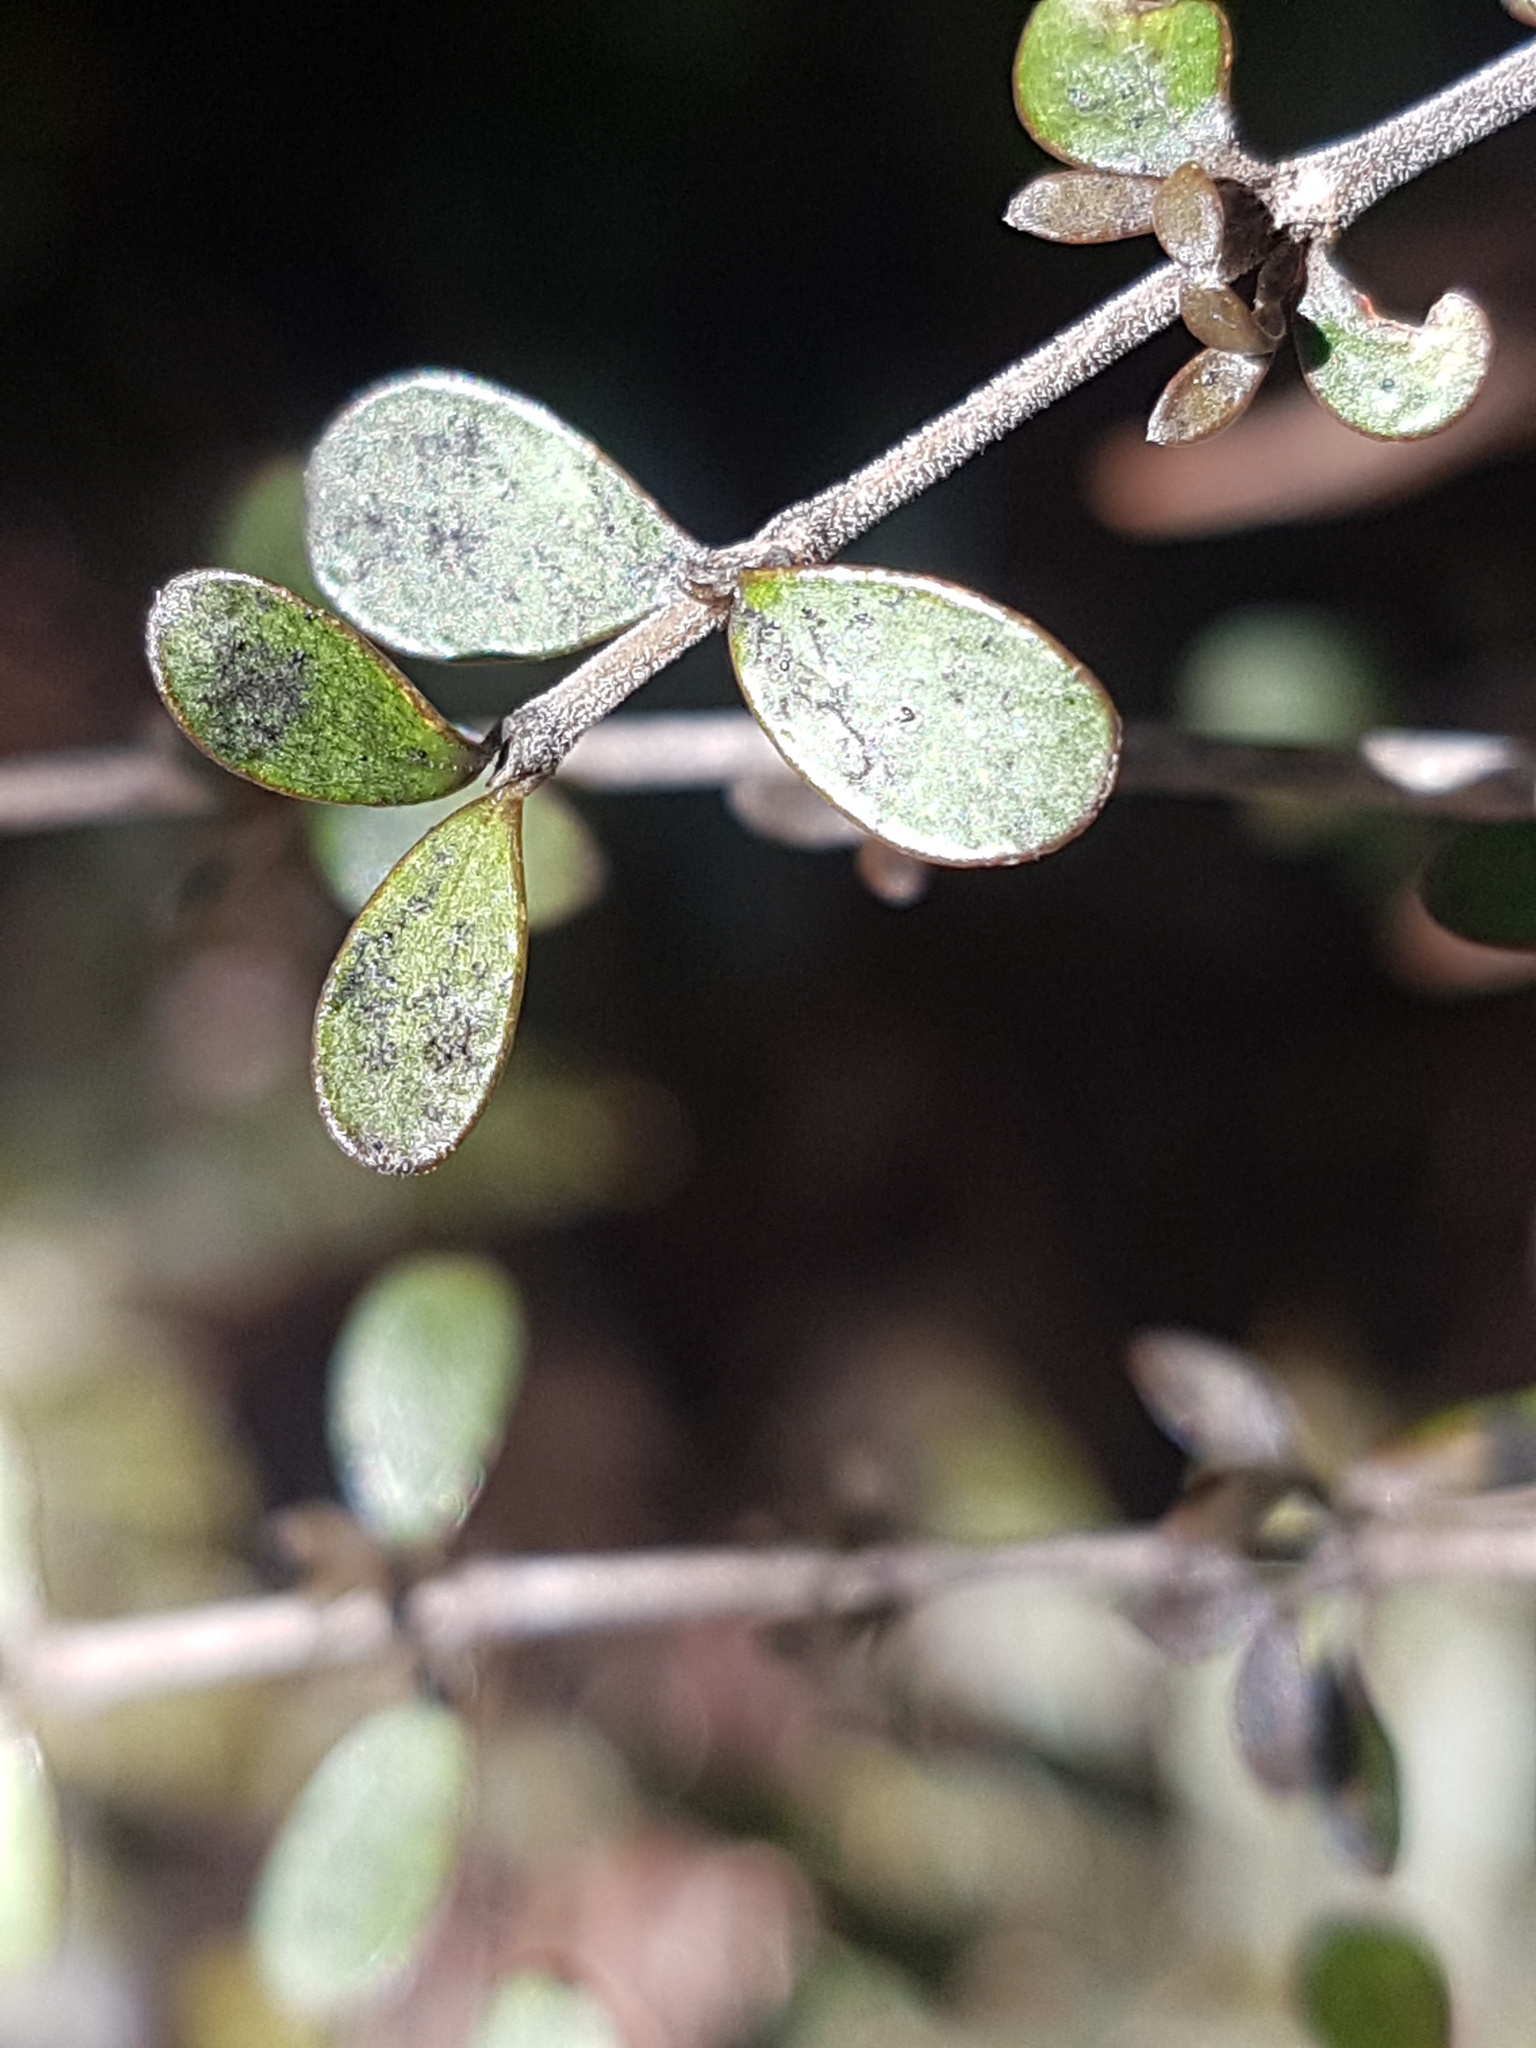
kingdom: Plantae
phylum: Tracheophyta
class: Magnoliopsida
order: Gentianales
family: Rubiaceae
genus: Coprosma
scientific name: Coprosma dumosa
